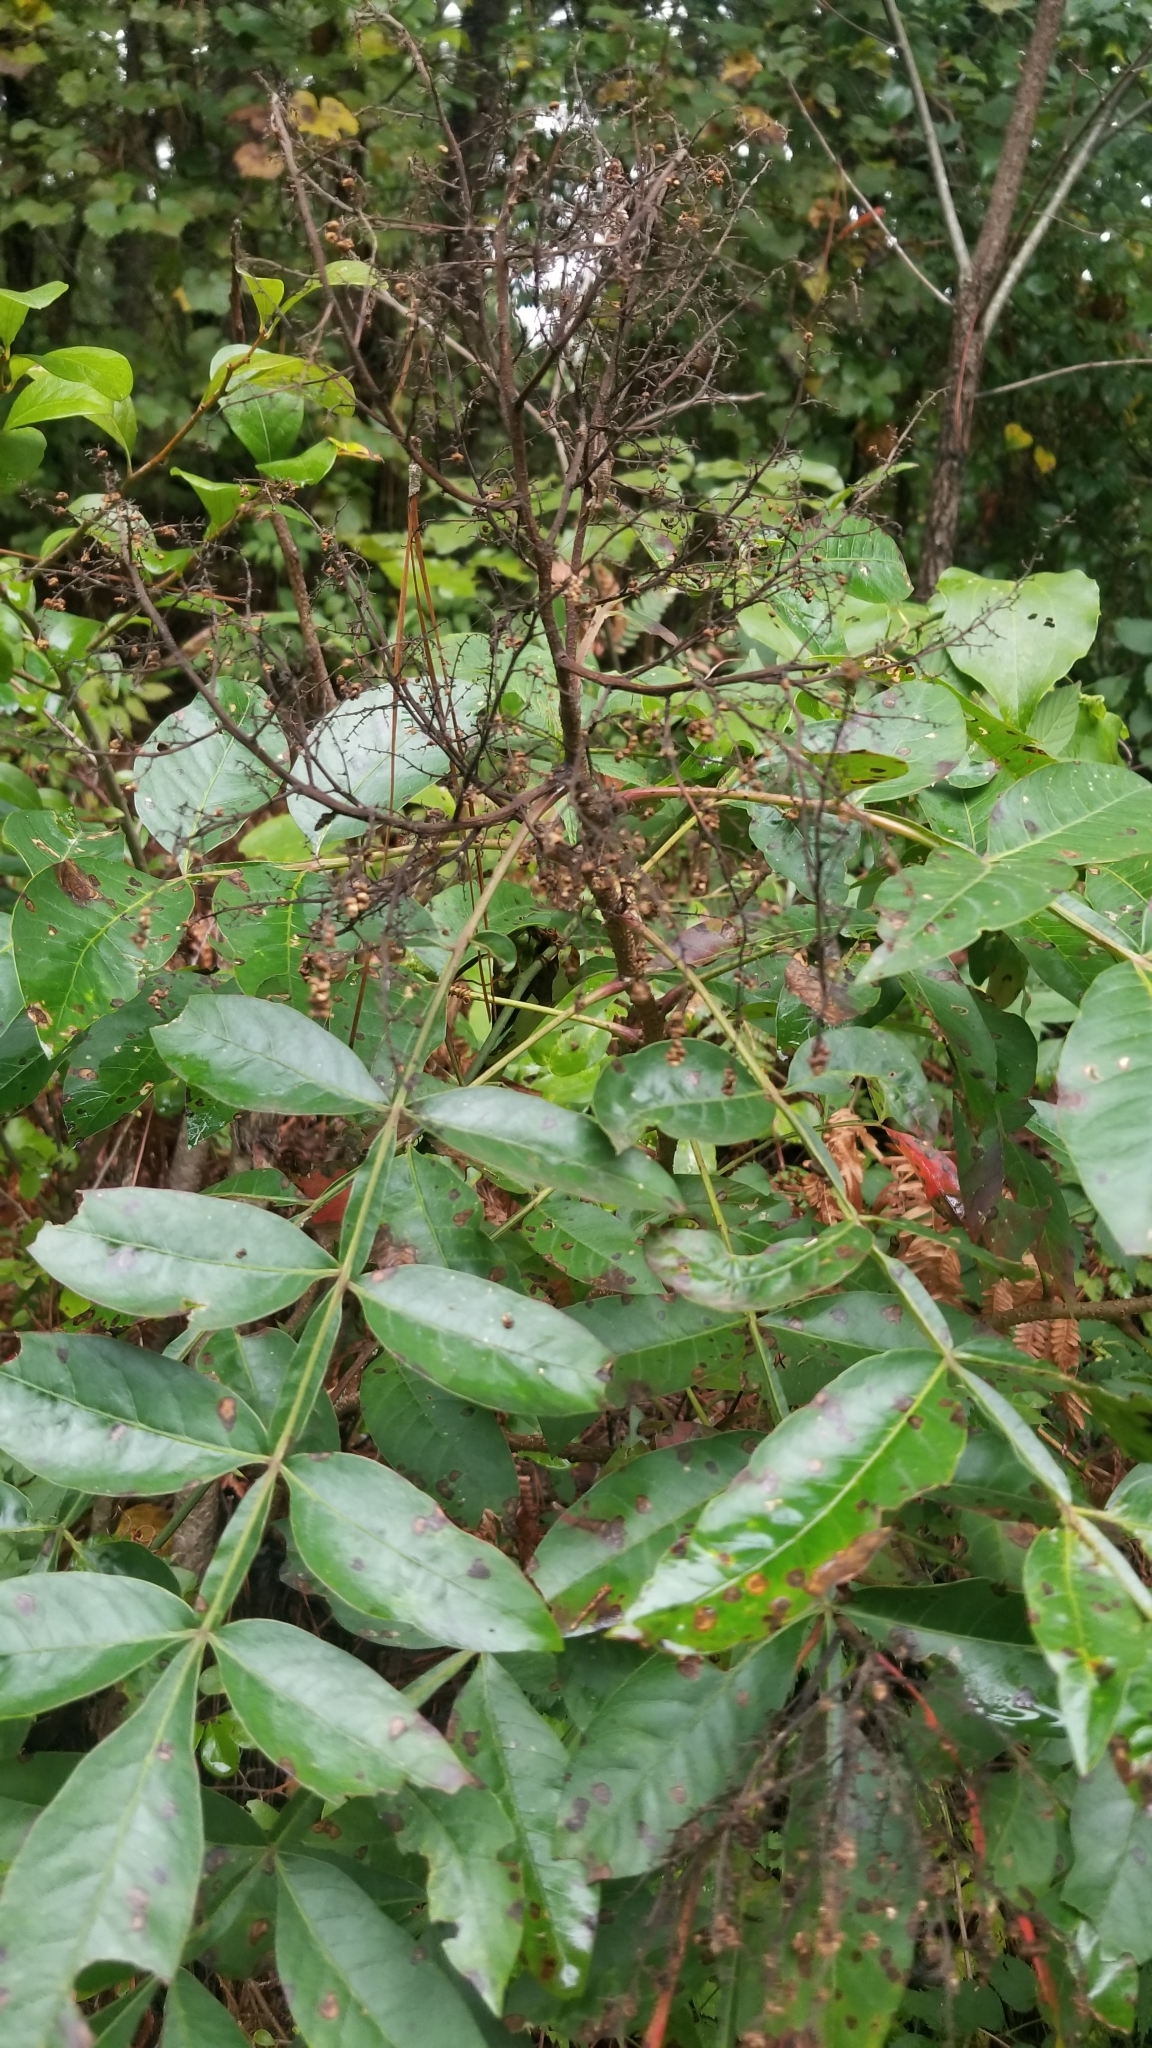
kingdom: Plantae
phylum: Tracheophyta
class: Magnoliopsida
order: Sapindales
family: Anacardiaceae
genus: Rhus
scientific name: Rhus copallina
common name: Shining sumac
